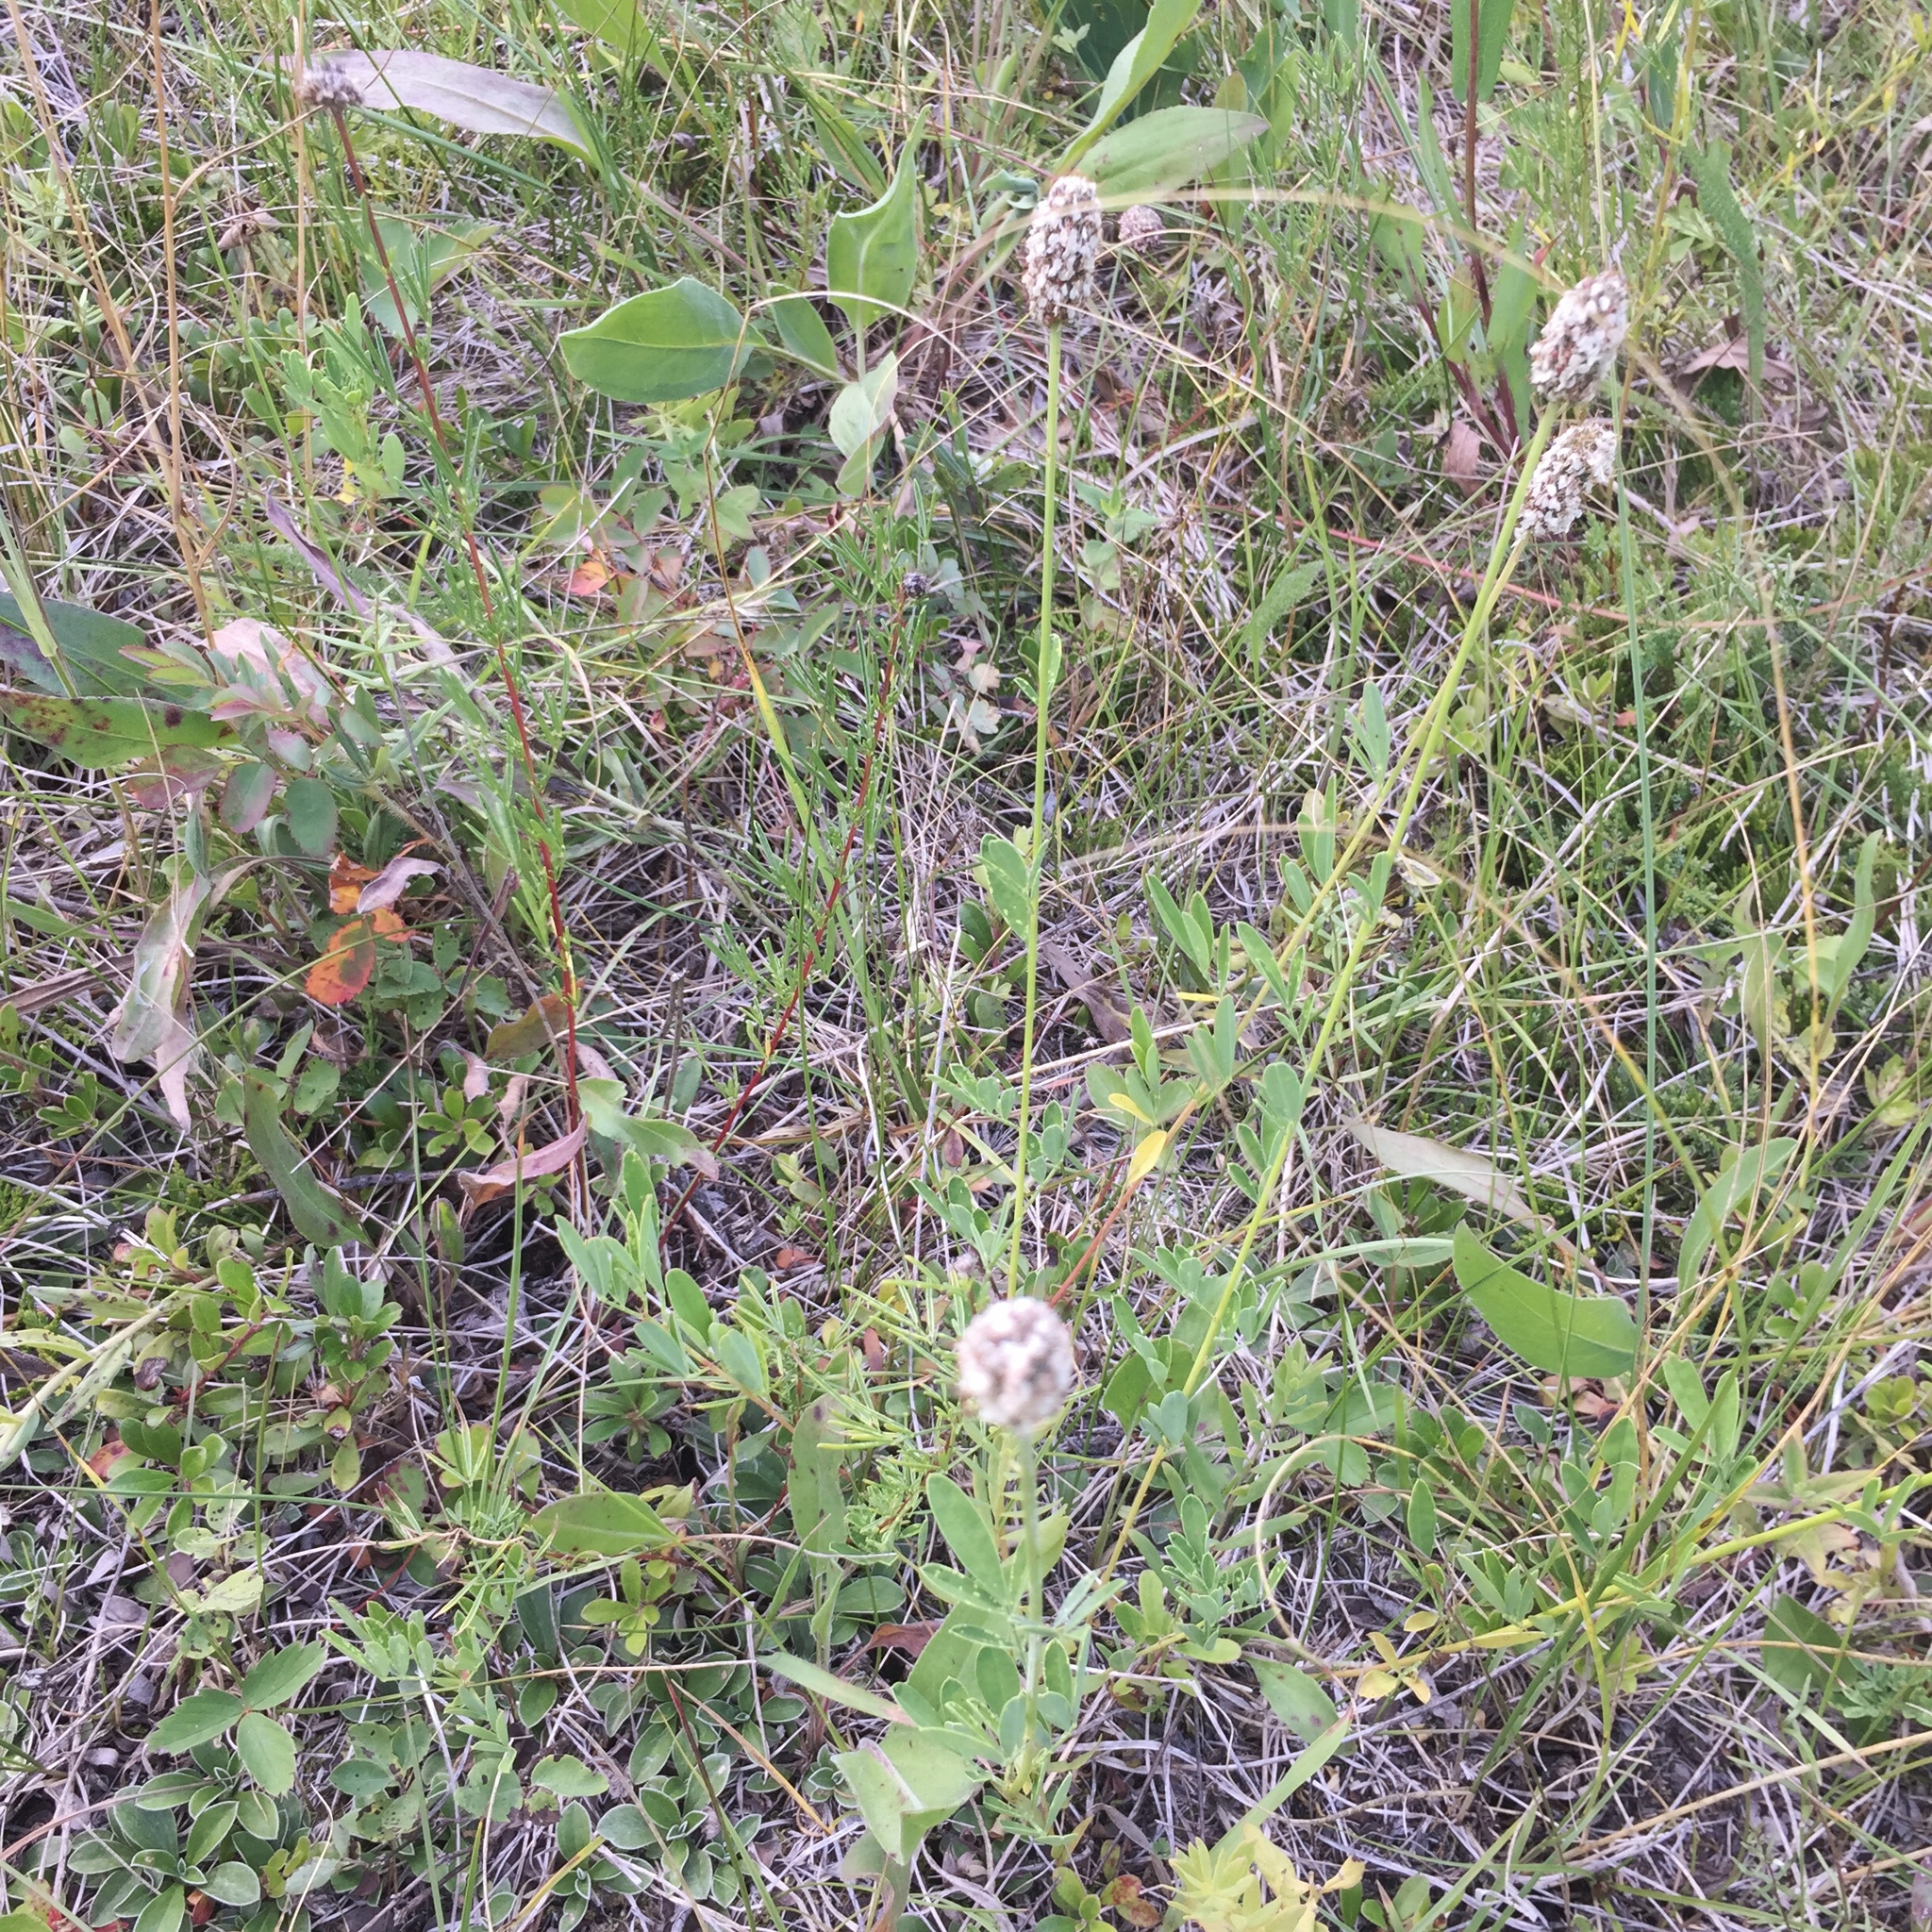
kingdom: Plantae
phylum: Tracheophyta
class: Magnoliopsida
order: Fabales
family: Fabaceae
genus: Dalea
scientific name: Dalea candida
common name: White prairie-clover
